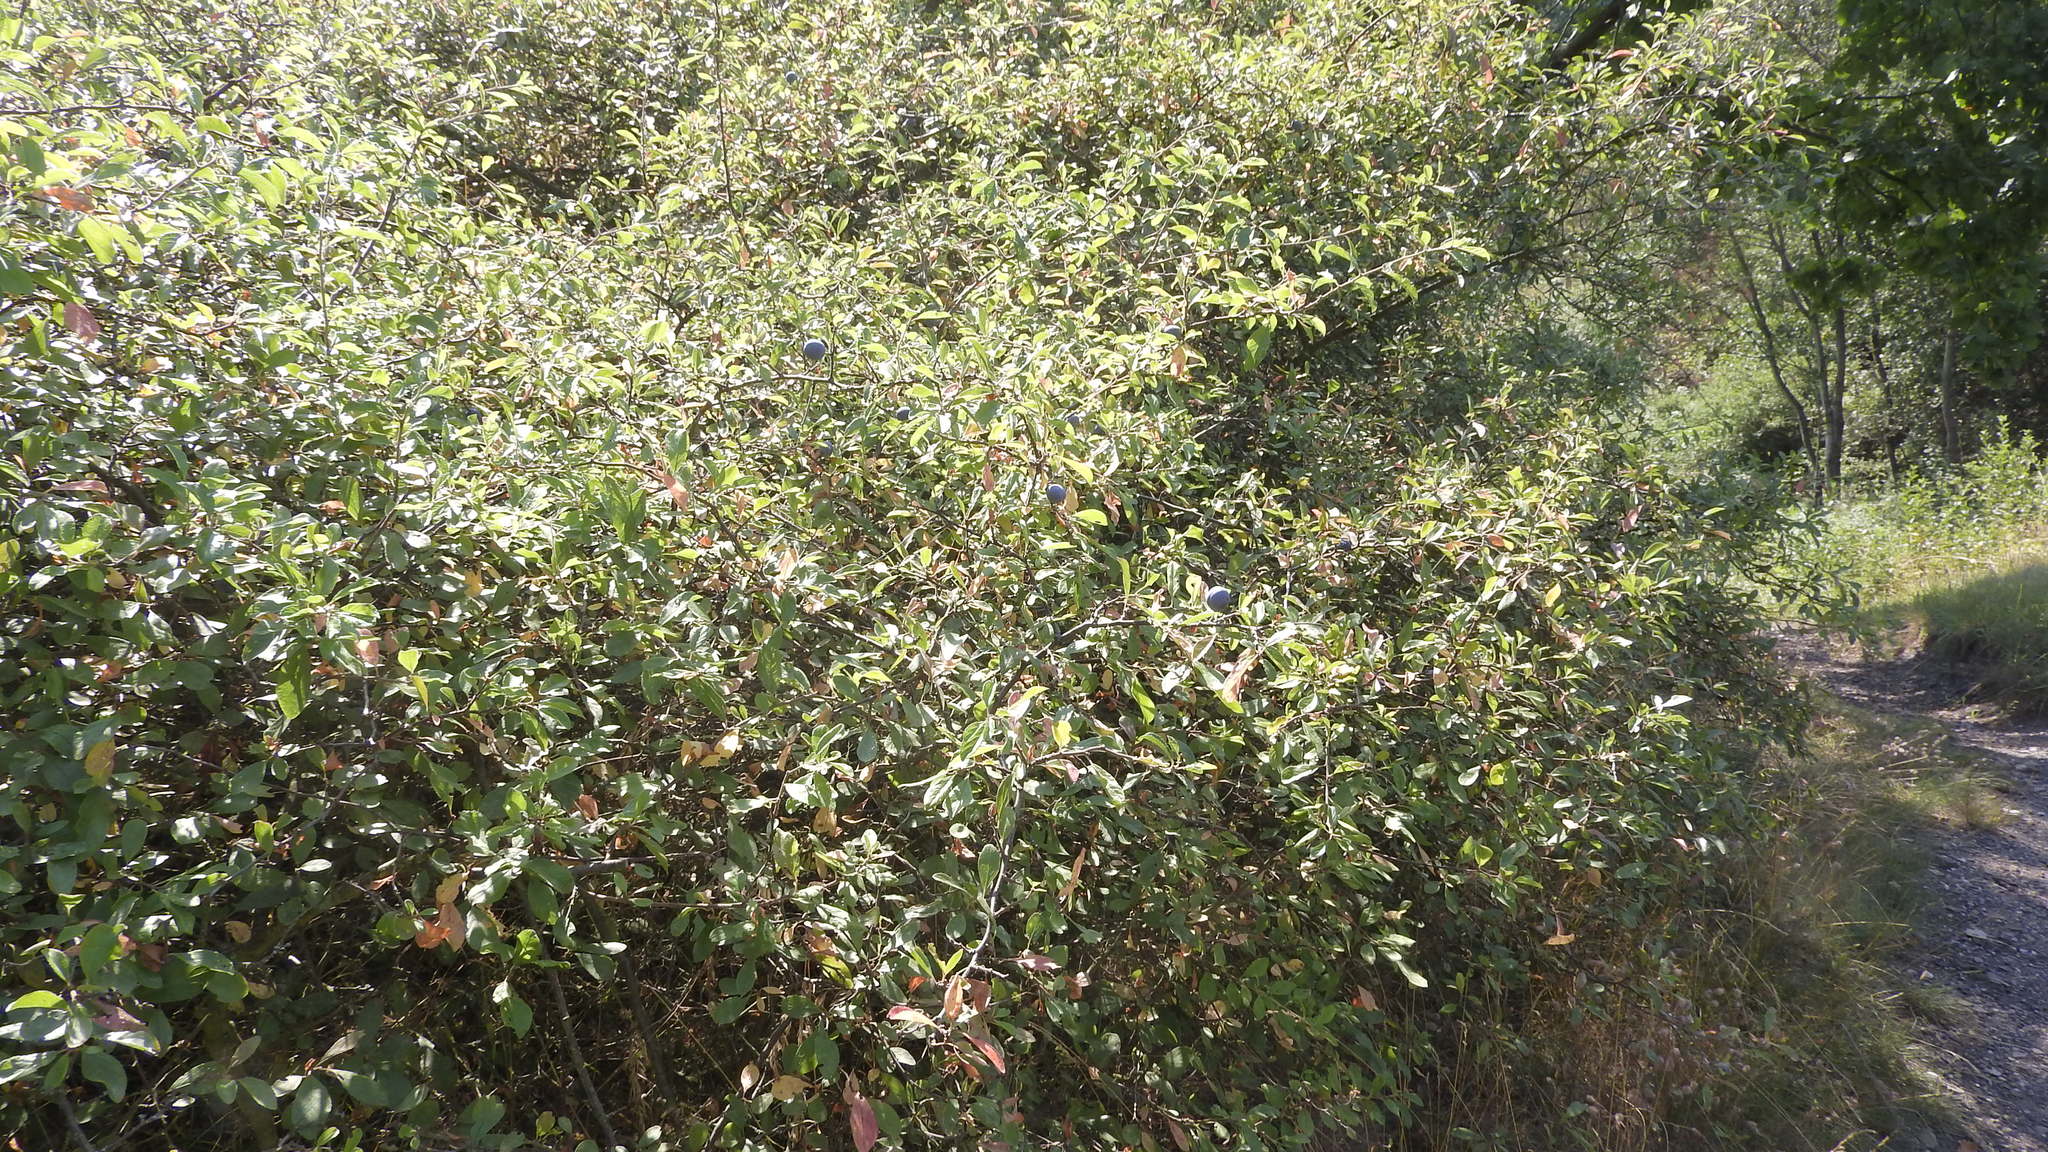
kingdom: Plantae
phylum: Tracheophyta
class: Magnoliopsida
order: Rosales
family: Rosaceae
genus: Prunus
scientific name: Prunus spinosa
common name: Blackthorn
